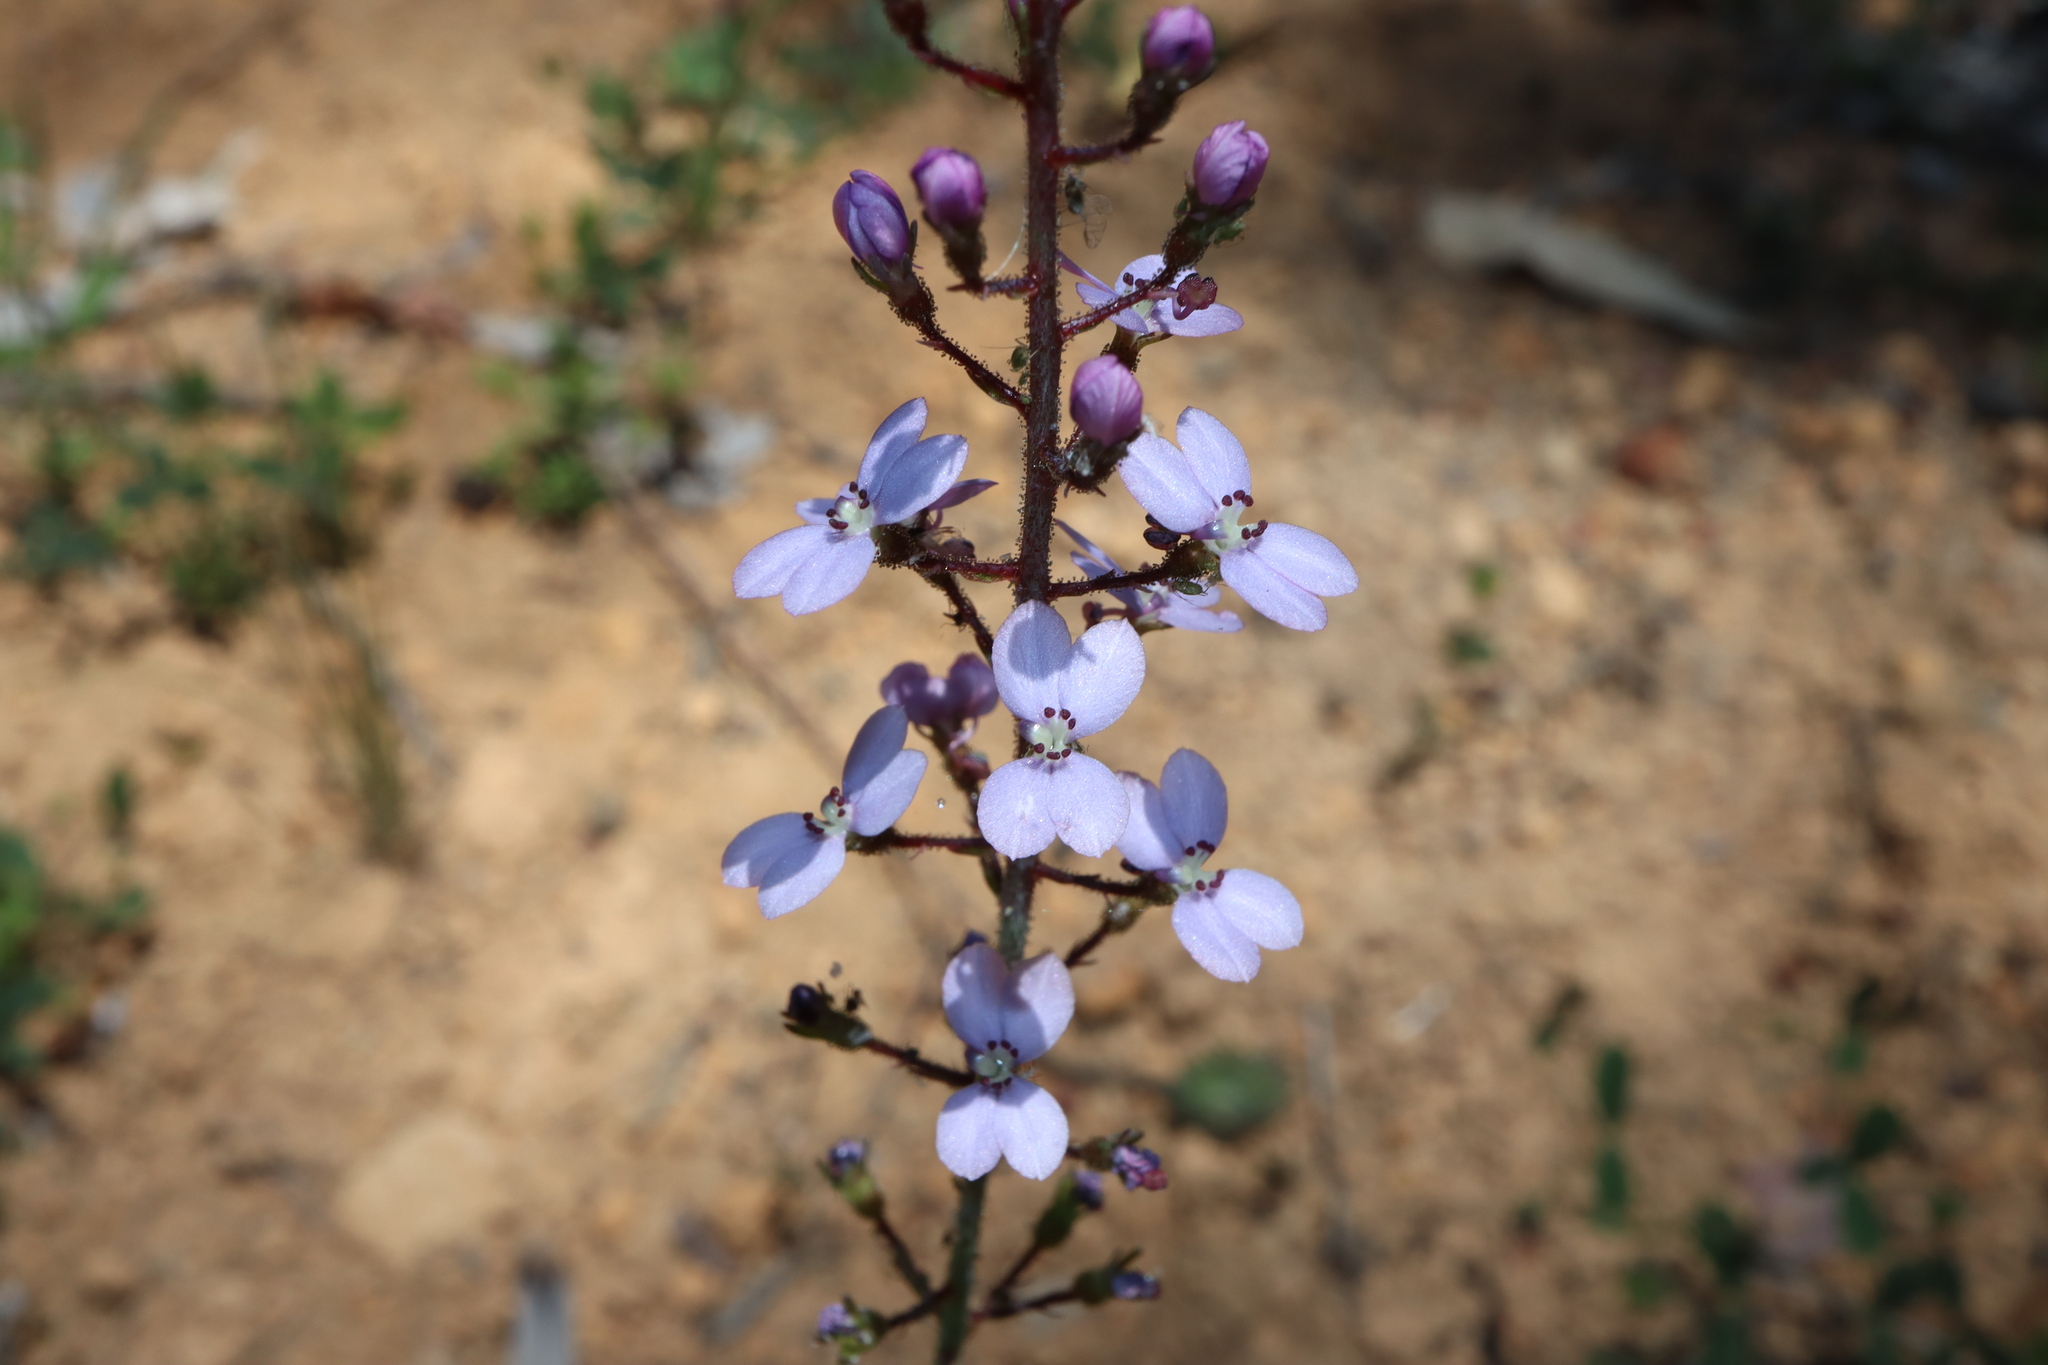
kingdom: Plantae
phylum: Tracheophyta
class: Magnoliopsida
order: Asterales
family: Stylidiaceae
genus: Stylidium
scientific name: Stylidium amoenum
